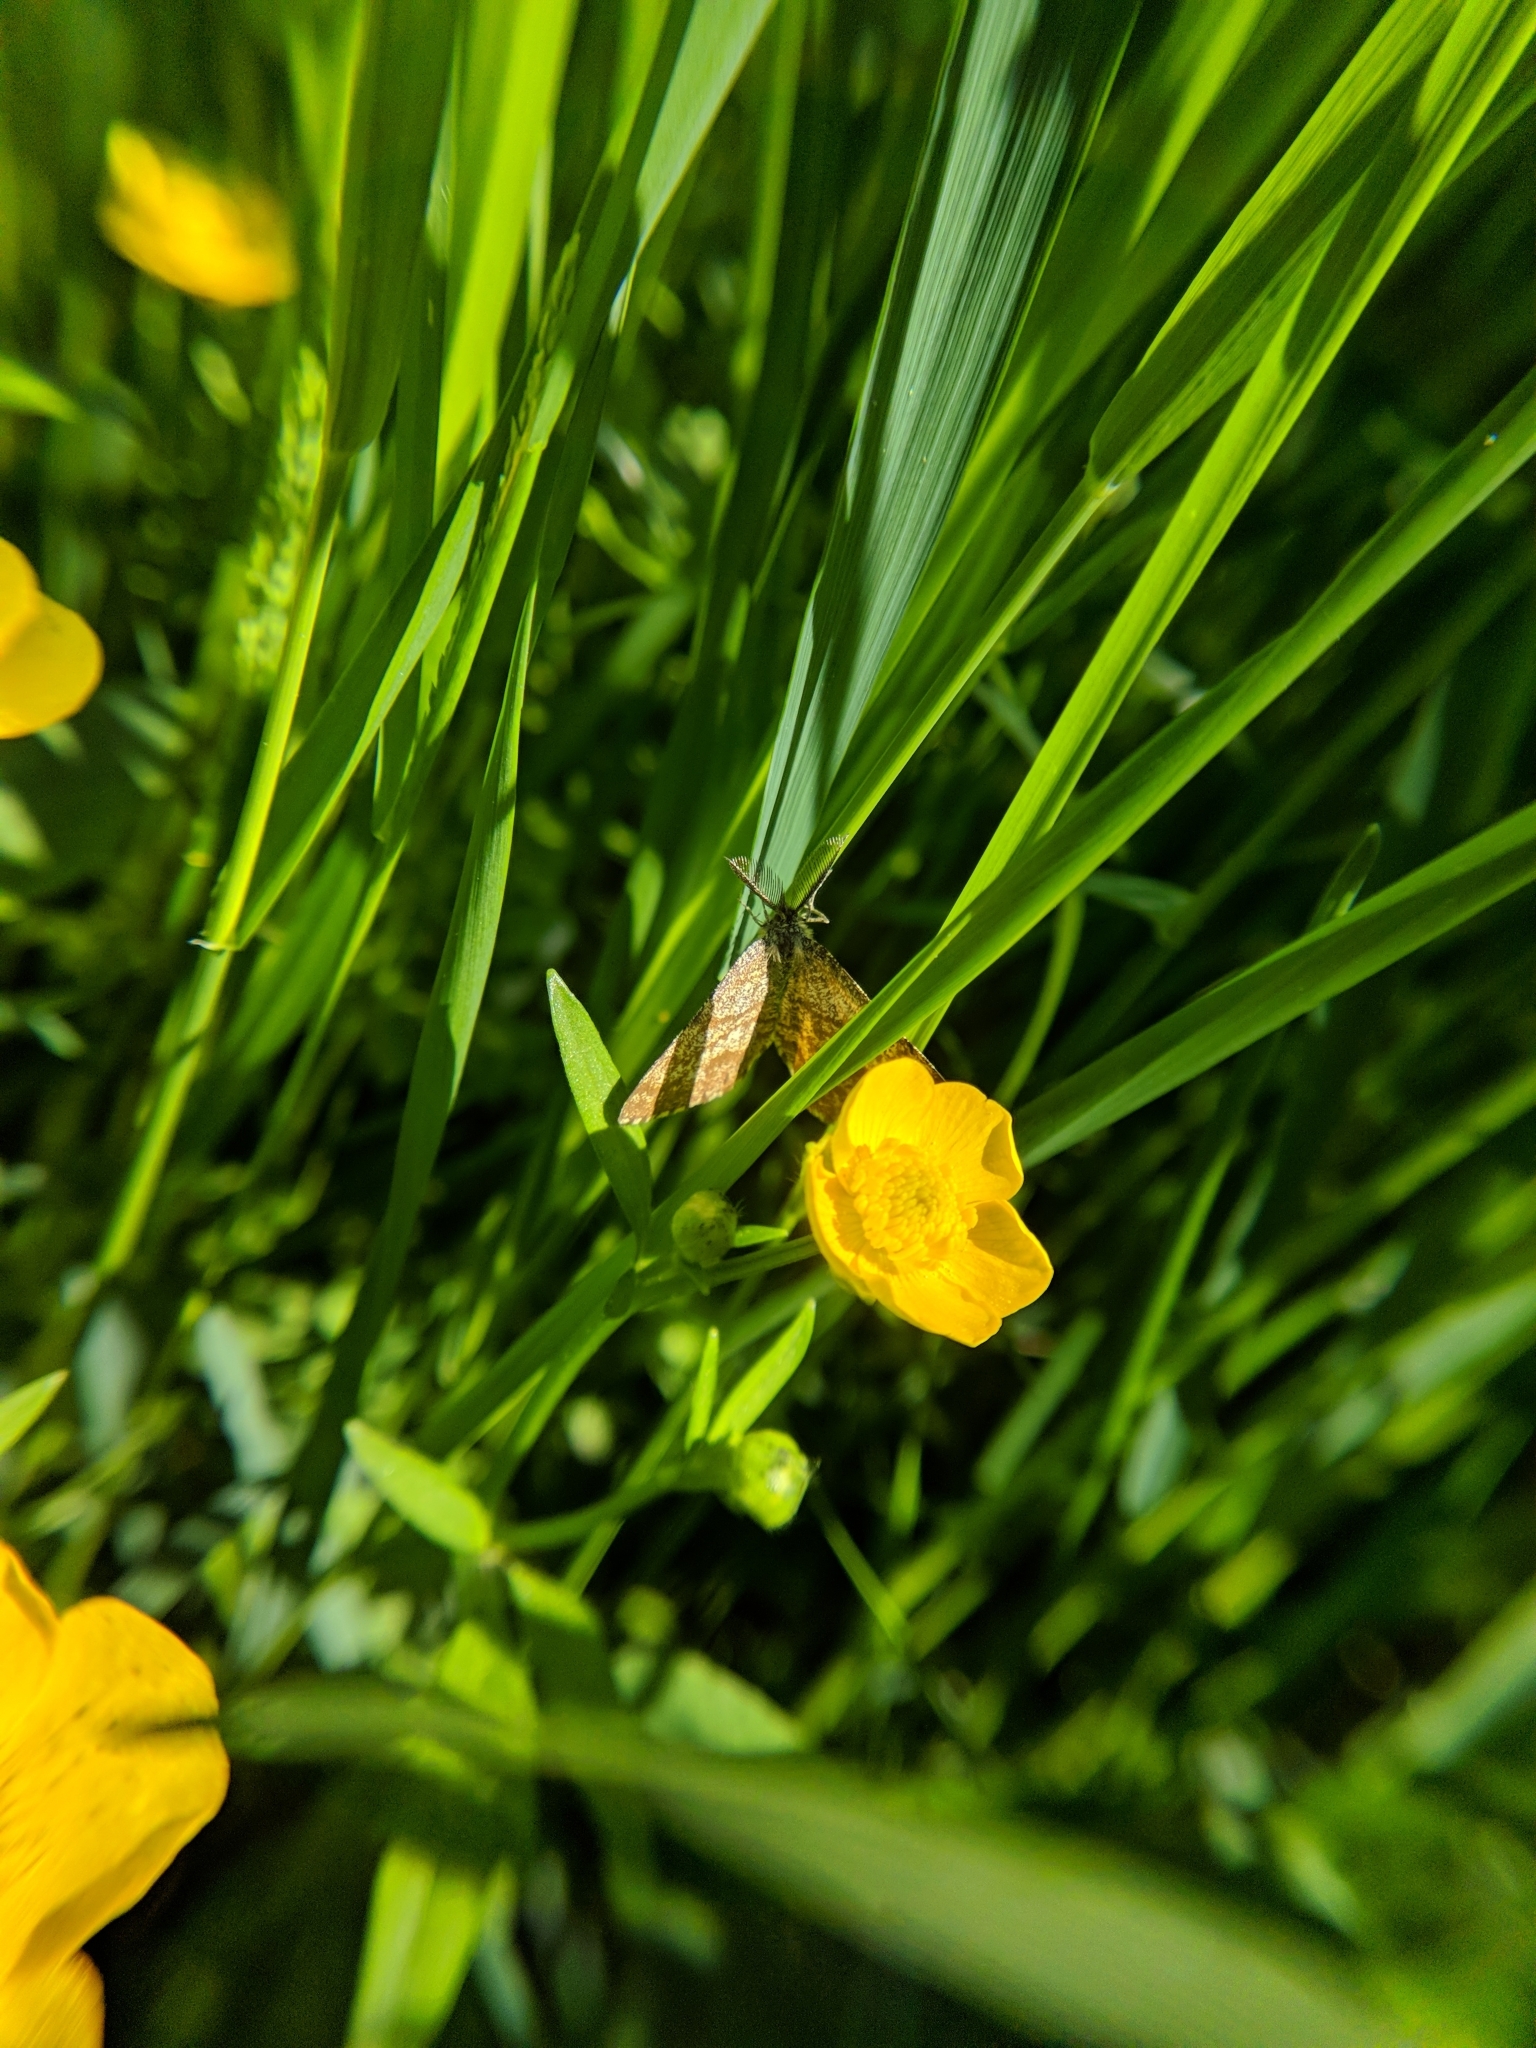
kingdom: Animalia
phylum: Arthropoda
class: Insecta
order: Lepidoptera
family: Geometridae
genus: Ematurga
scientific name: Ematurga atomaria
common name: Common heath
